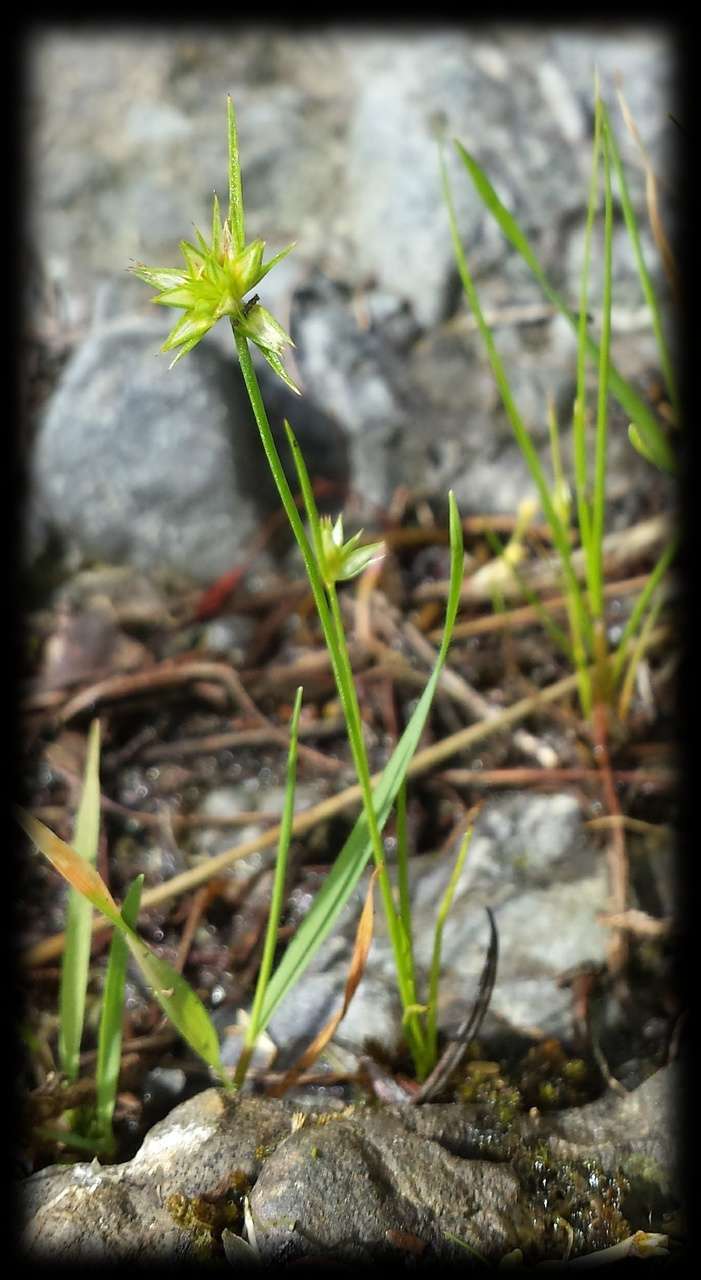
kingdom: Plantae
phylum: Tracheophyta
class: Liliopsida
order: Poales
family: Juncaceae
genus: Juncus
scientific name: Juncus capitatus
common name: Dwarf rush
